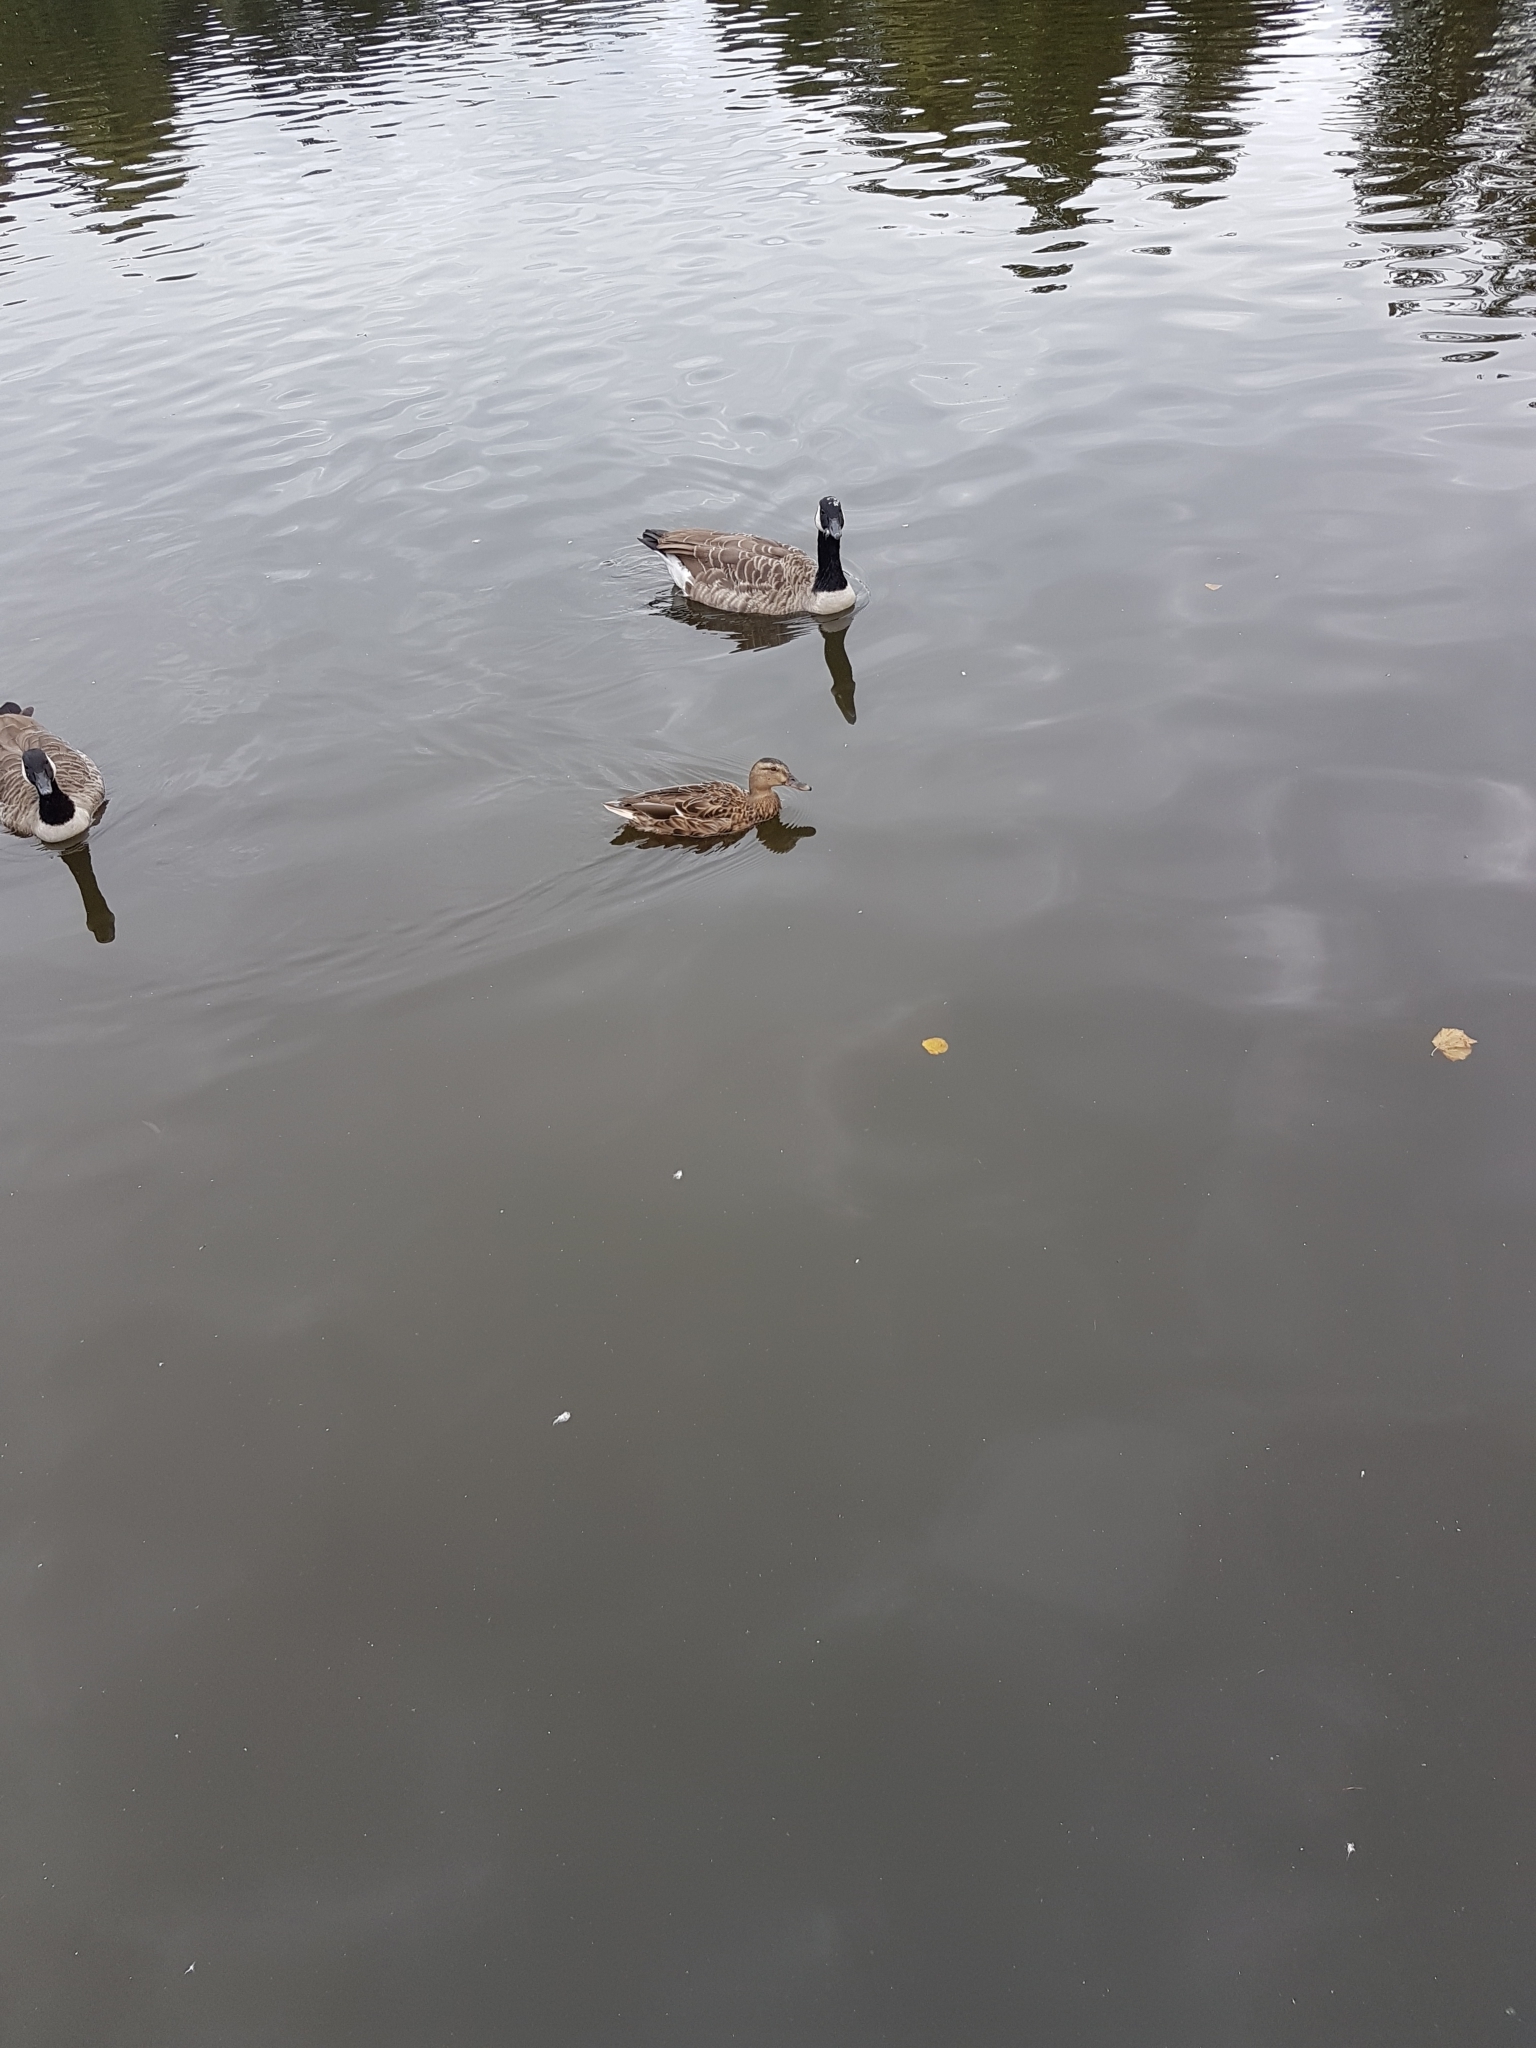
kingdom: Animalia
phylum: Chordata
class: Aves
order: Anseriformes
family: Anatidae
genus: Anas
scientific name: Anas platyrhynchos
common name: Mallard
